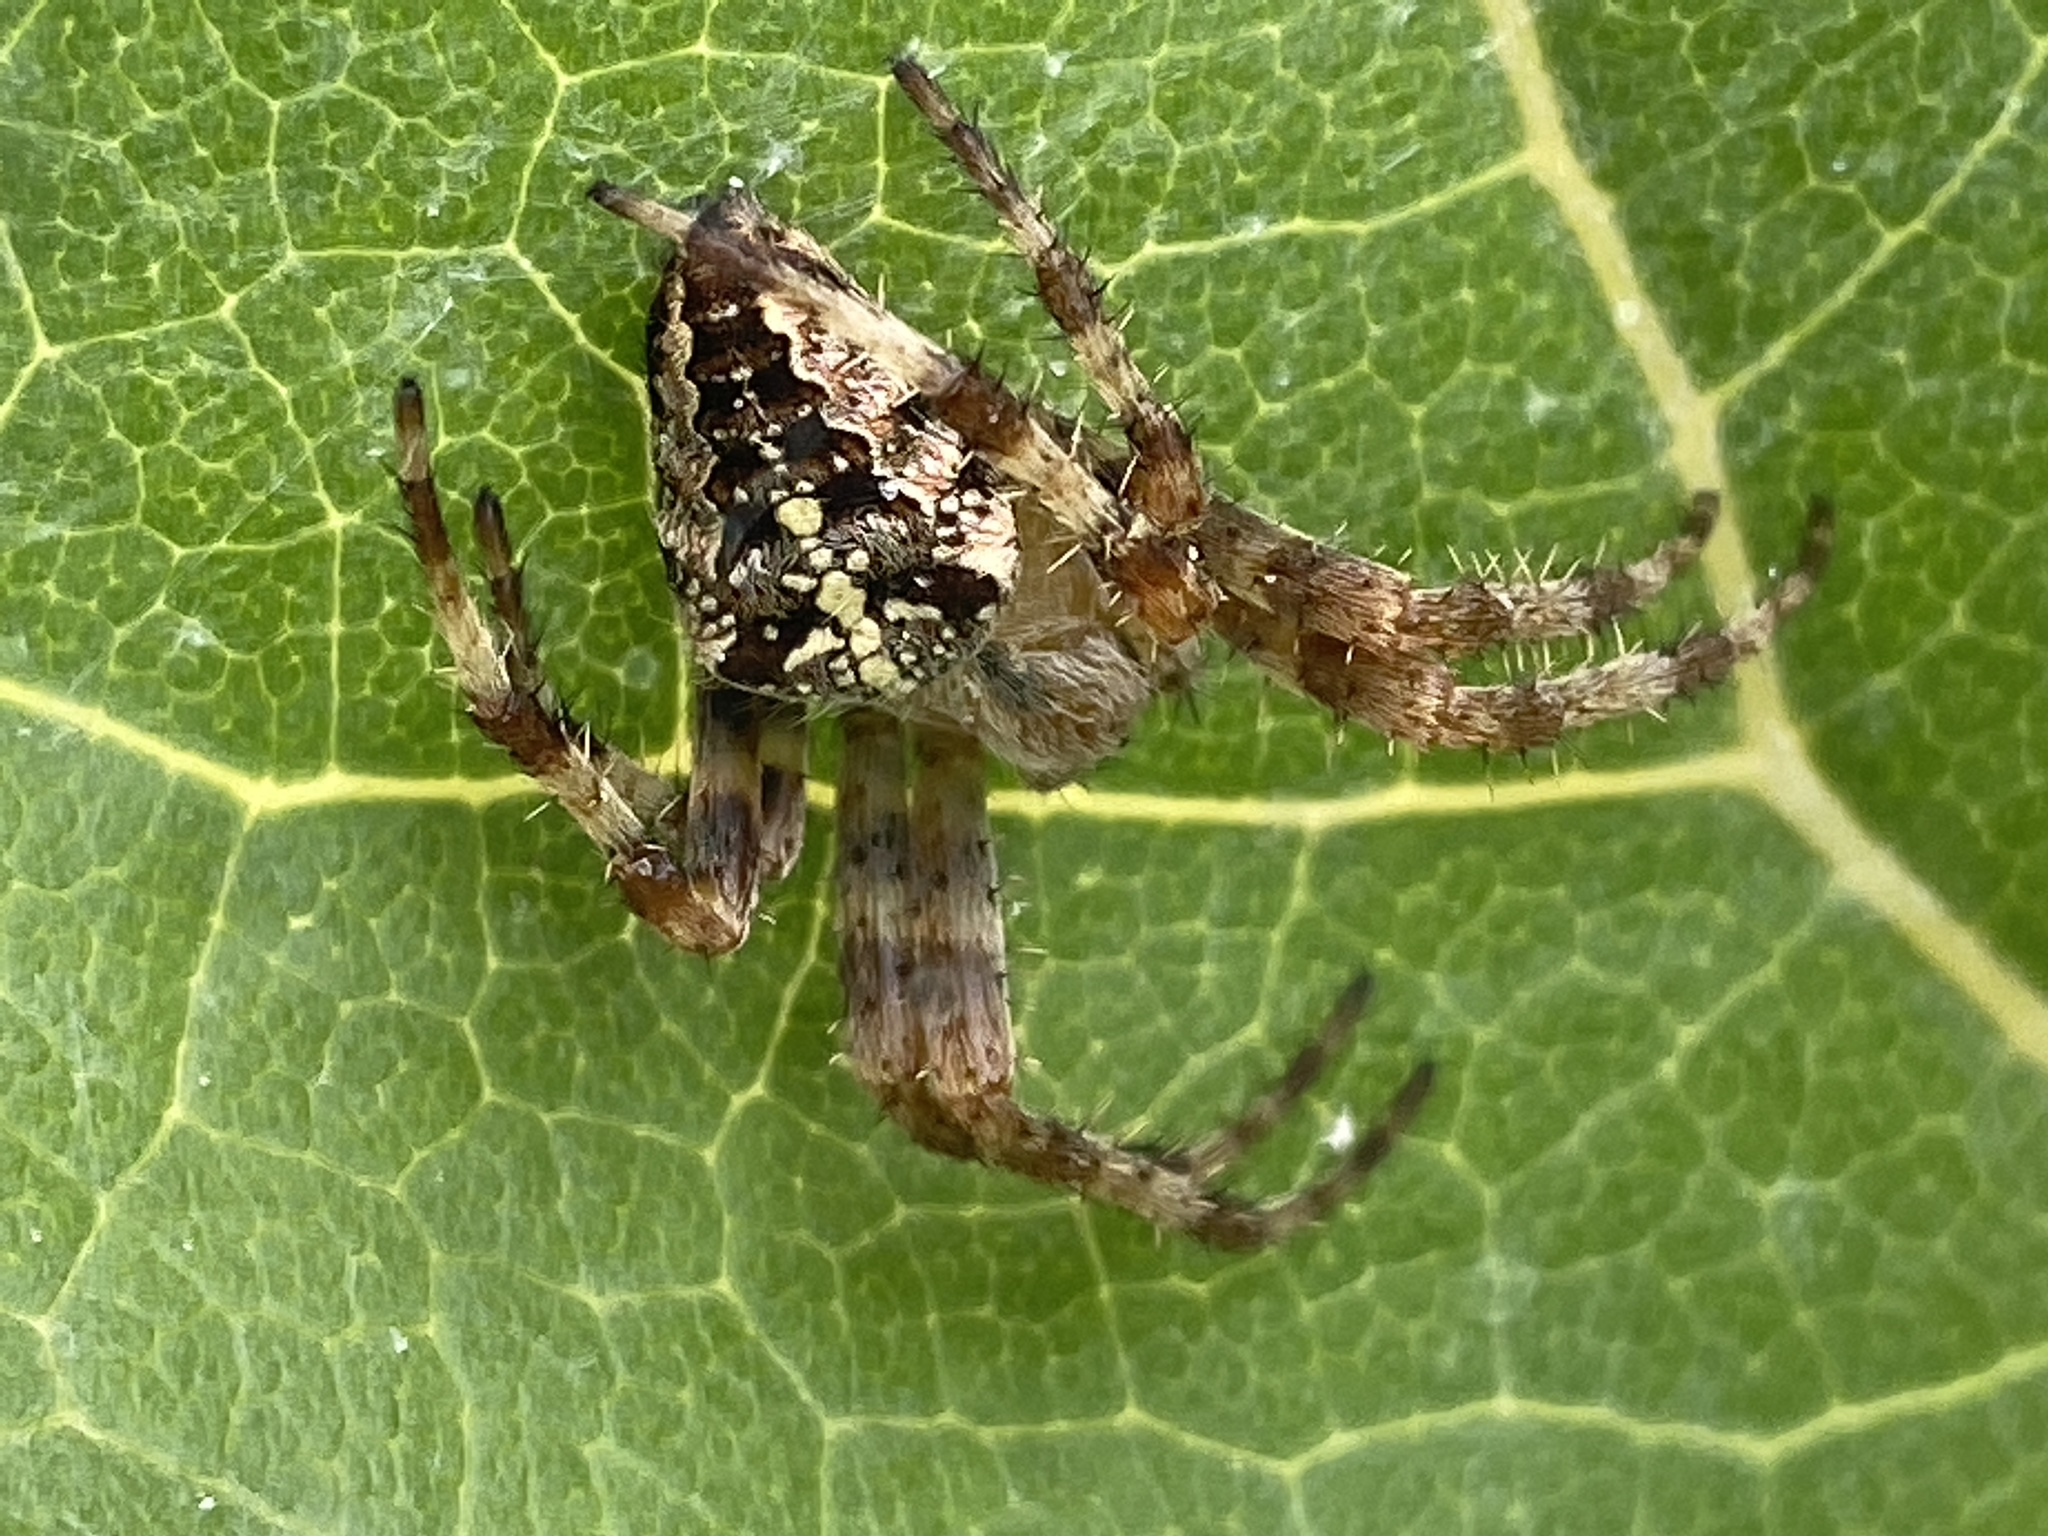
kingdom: Animalia
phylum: Arthropoda
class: Arachnida
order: Araneae
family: Araneidae
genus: Araneus
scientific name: Araneus diadematus
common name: Cross orbweaver
